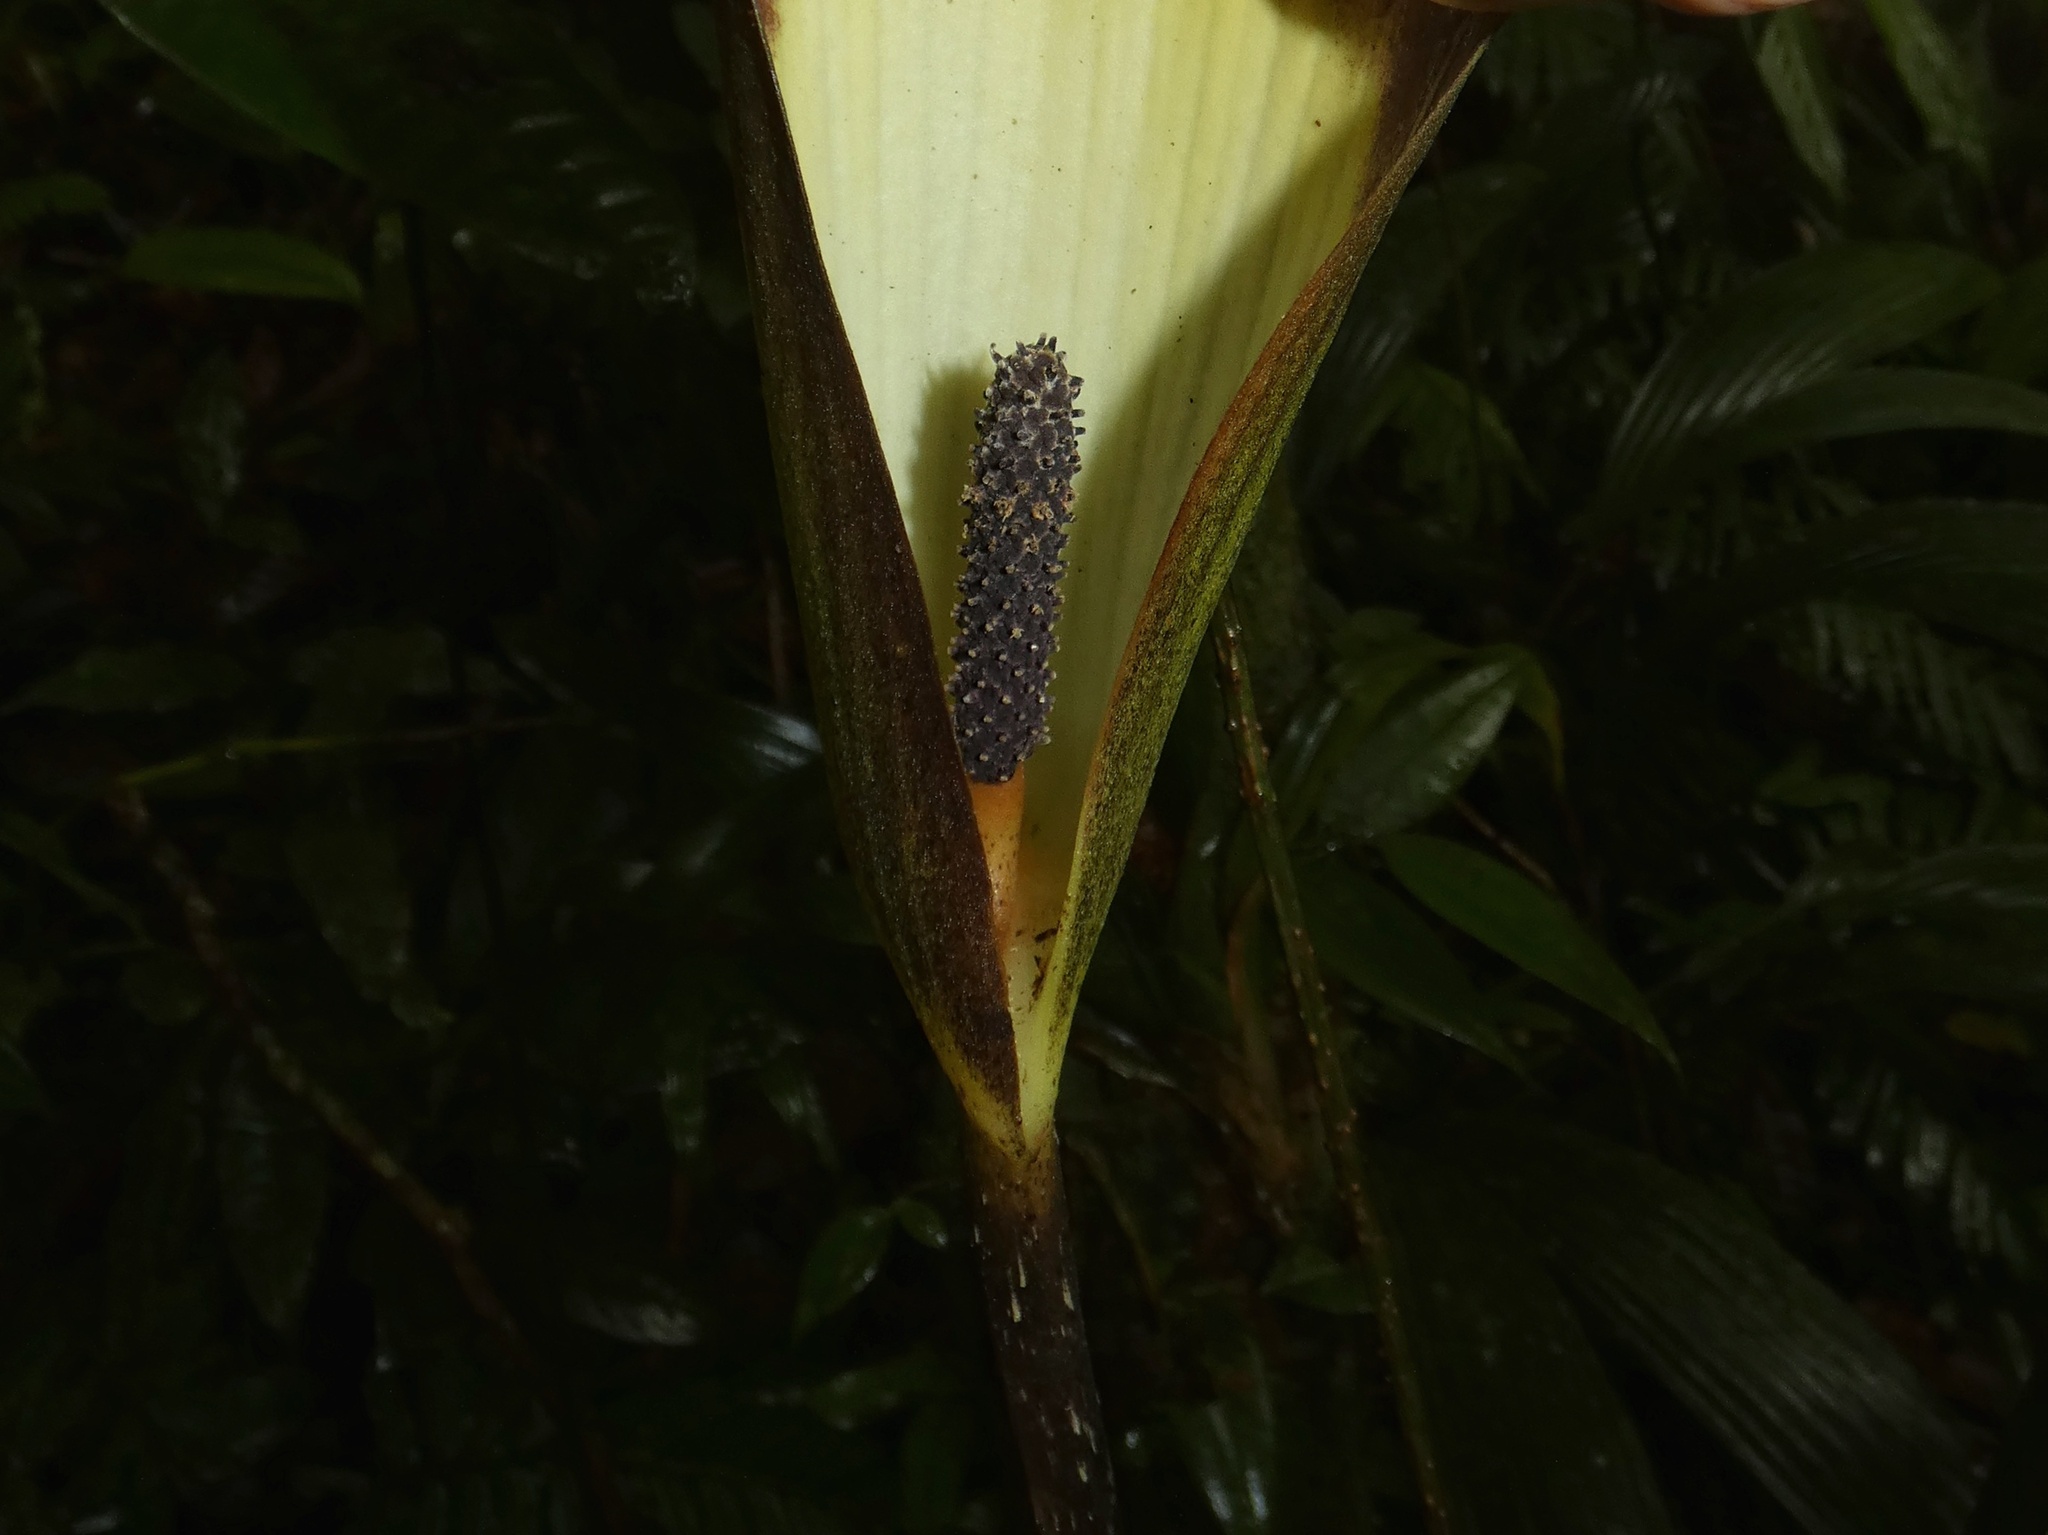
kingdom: Plantae
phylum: Tracheophyta
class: Liliopsida
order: Alismatales
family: Araceae
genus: Dracontium
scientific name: Dracontium spruceanum
